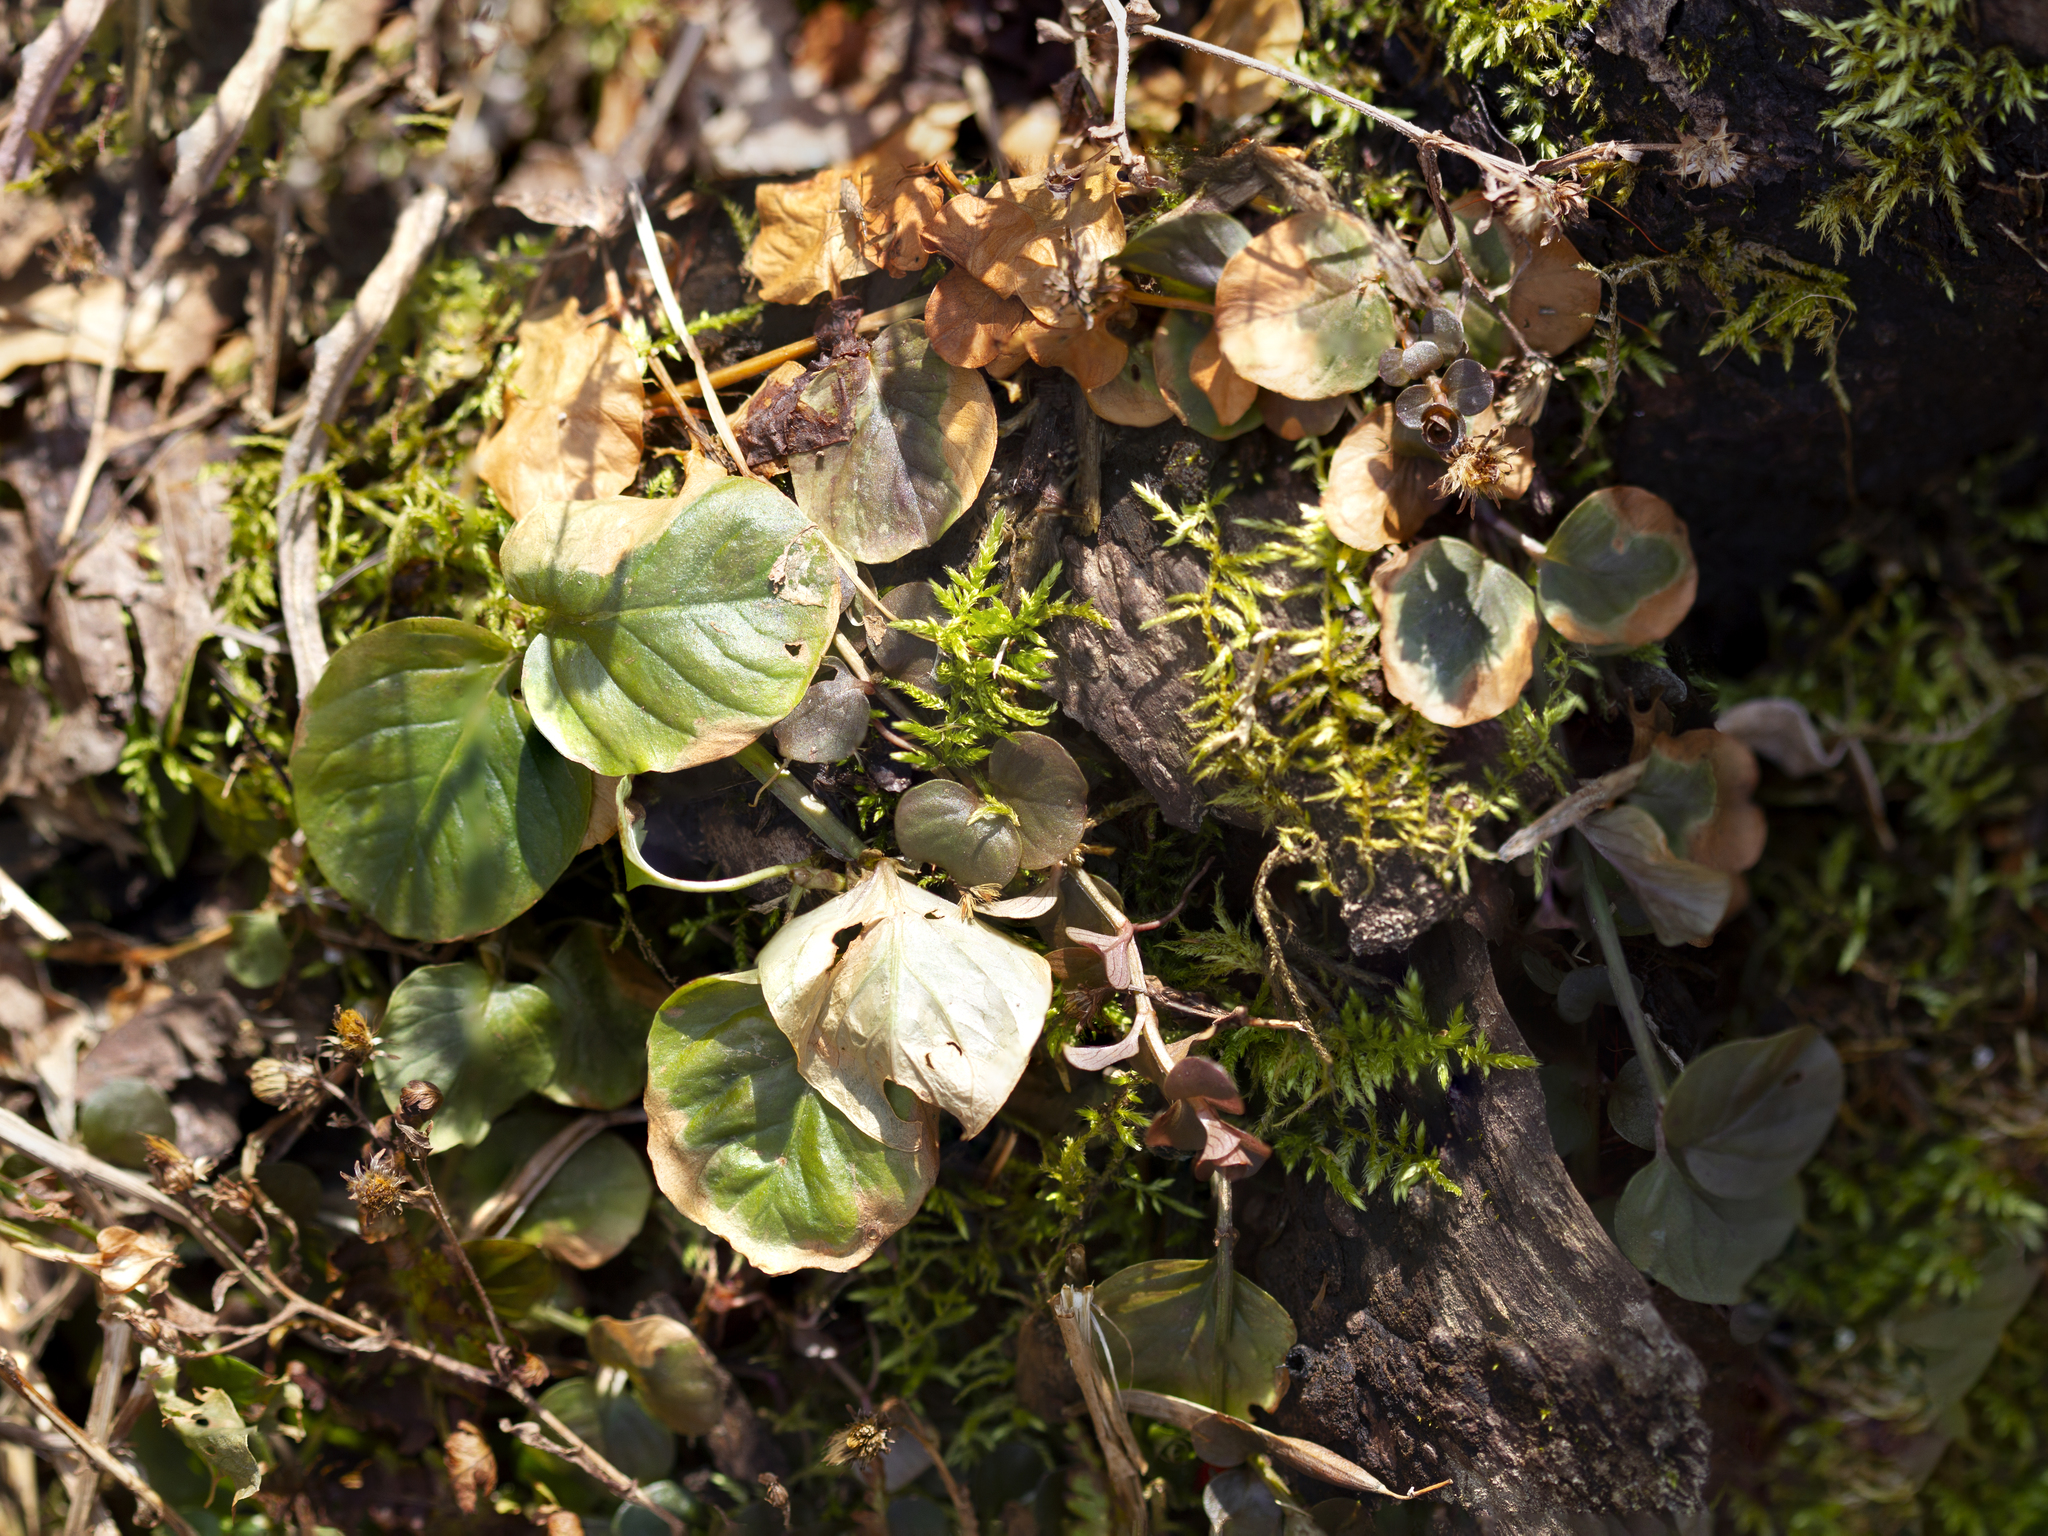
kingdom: Plantae
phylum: Tracheophyta
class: Magnoliopsida
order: Ericales
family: Primulaceae
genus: Lysimachia
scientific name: Lysimachia nummularia
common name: Moneywort
